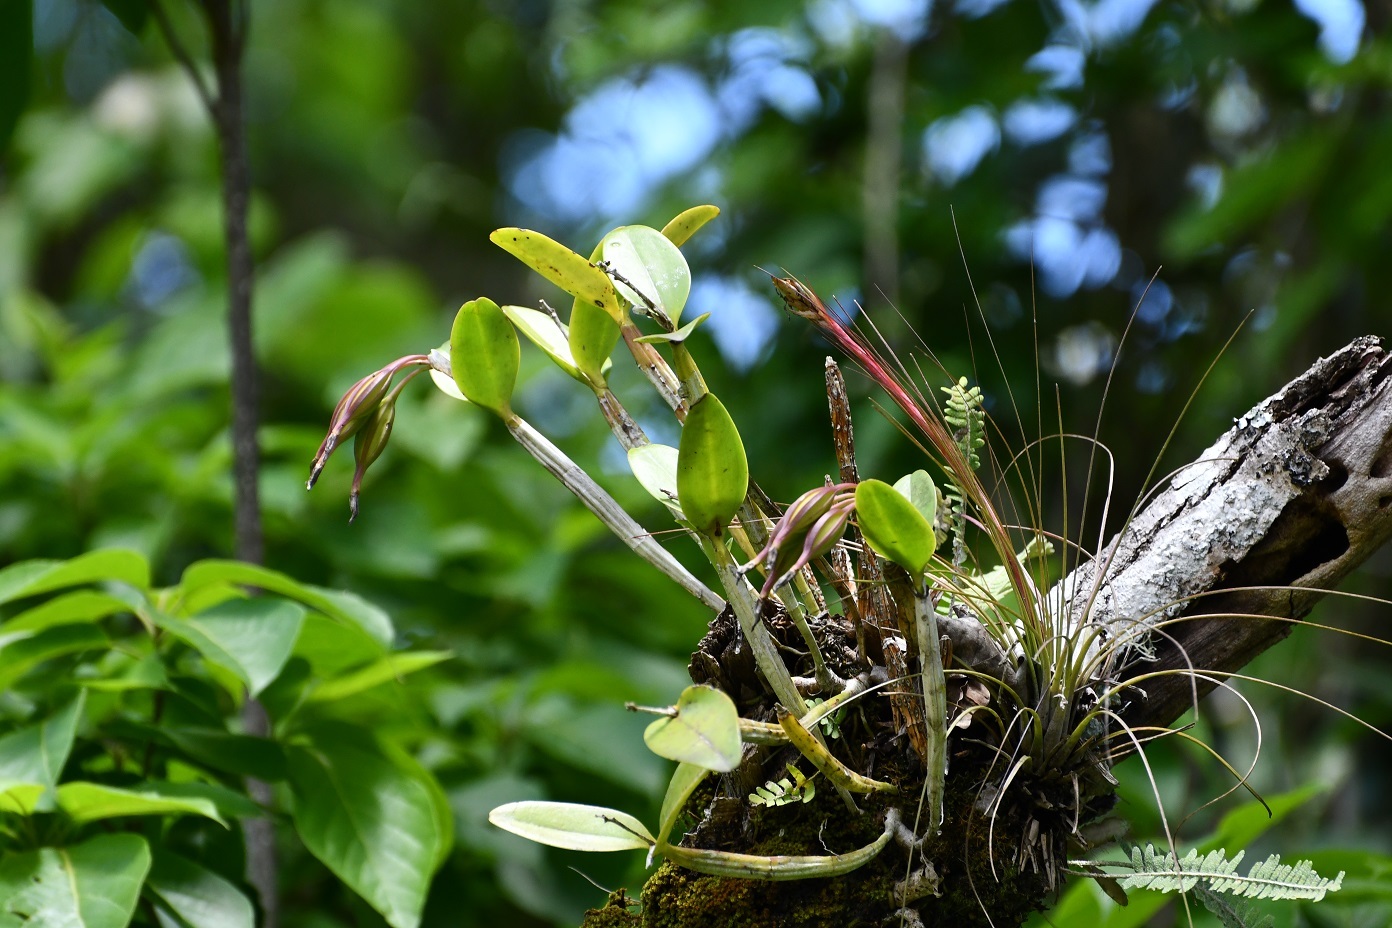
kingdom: Plantae
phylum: Tracheophyta
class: Liliopsida
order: Asparagales
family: Orchidaceae
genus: Guarianthe
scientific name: Guarianthe aurantiaca
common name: Orange cattleya
